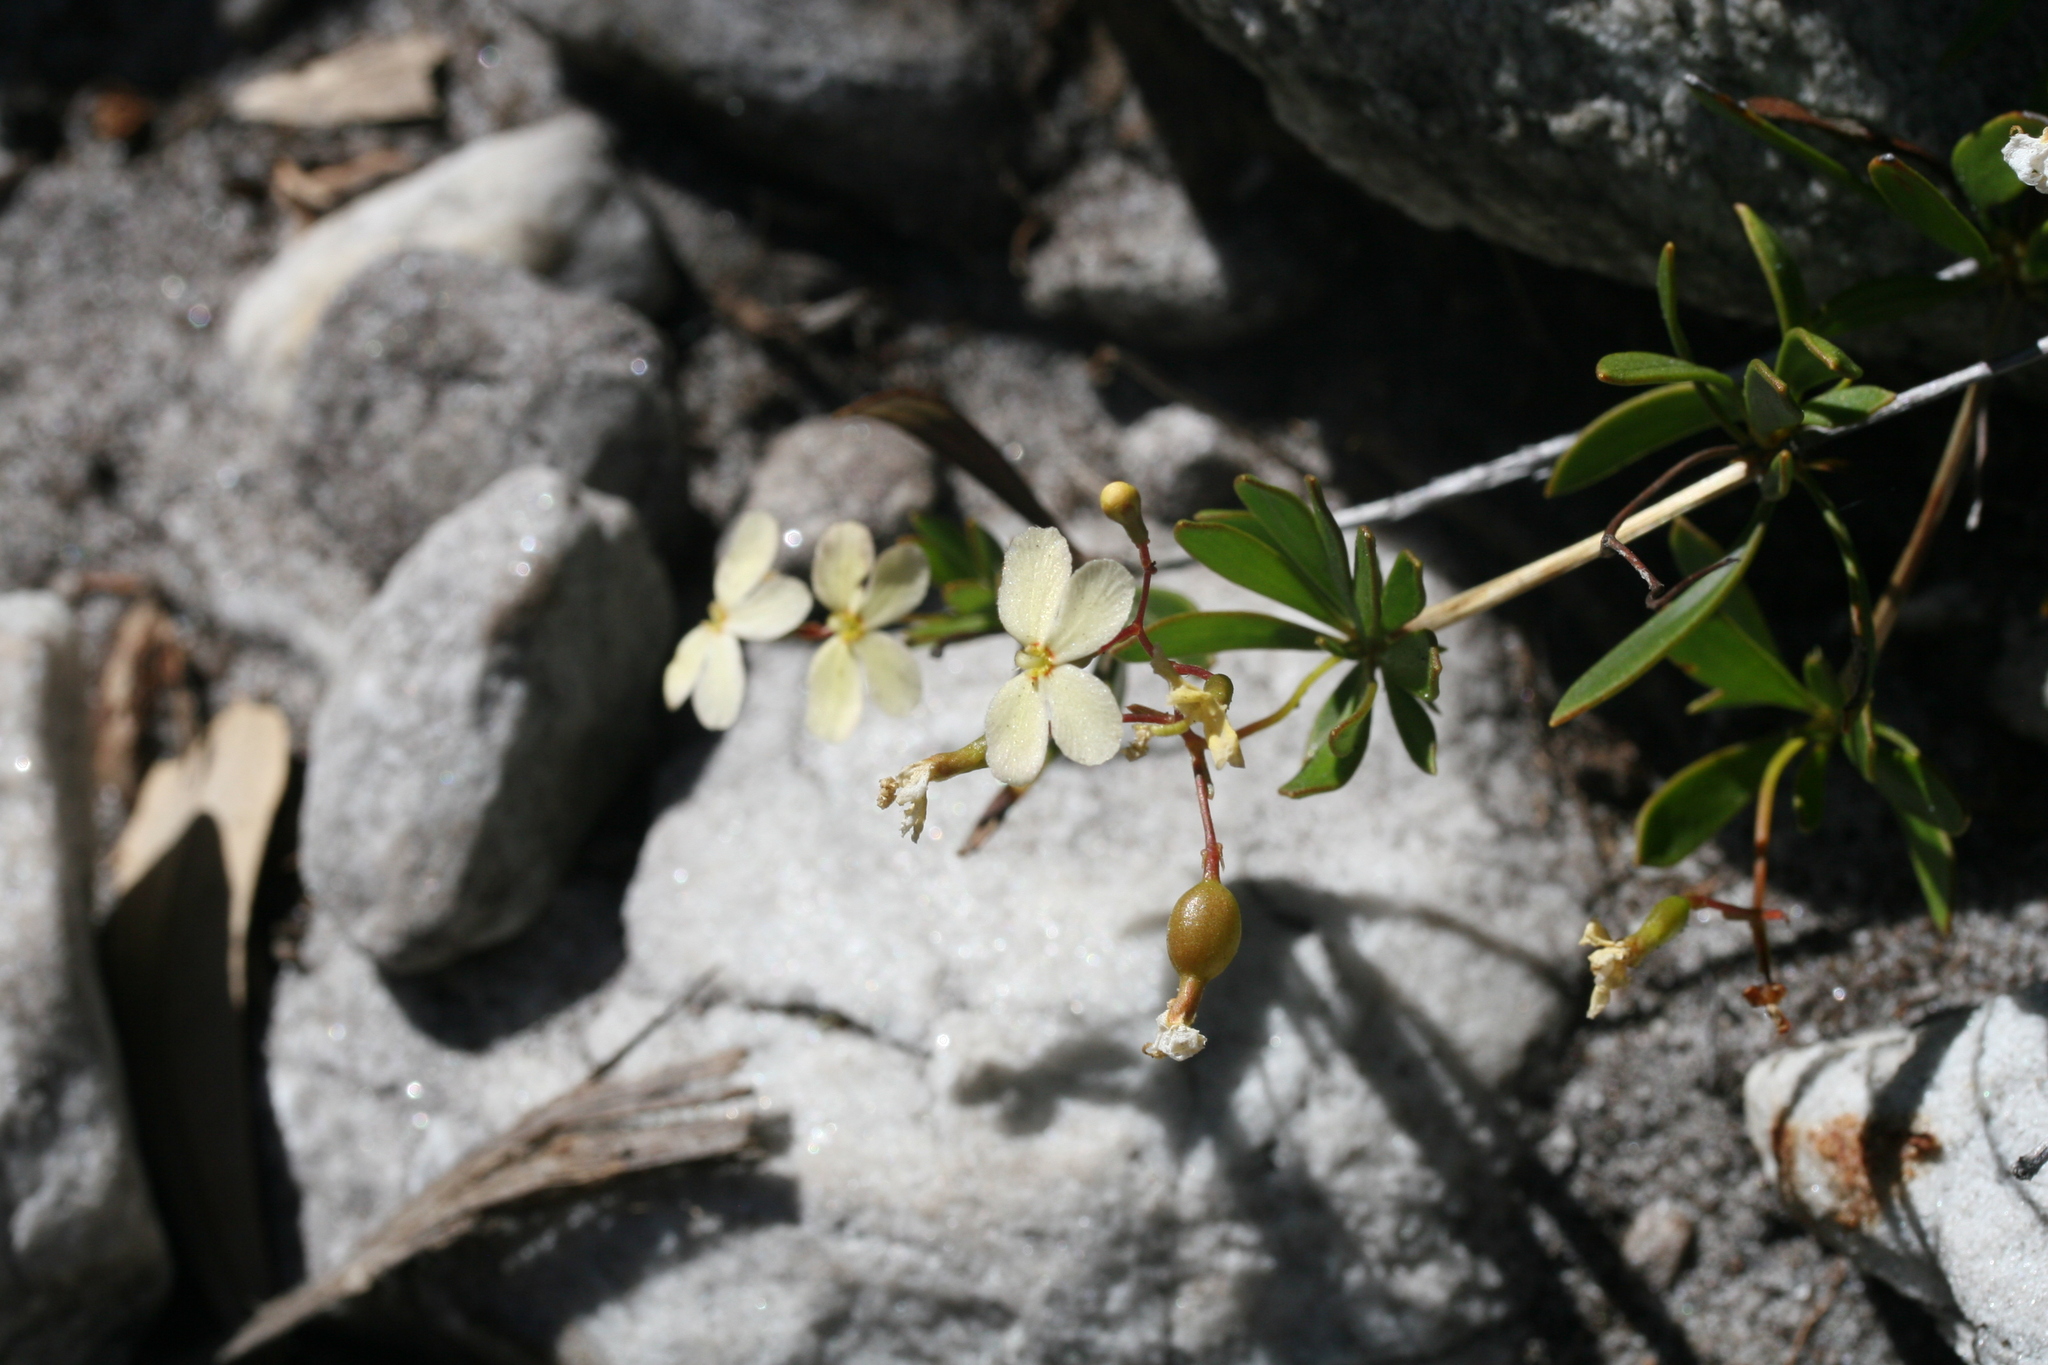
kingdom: Plantae
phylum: Tracheophyta
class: Magnoliopsida
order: Asterales
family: Stylidiaceae
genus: Stylidium
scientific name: Stylidium galioides
